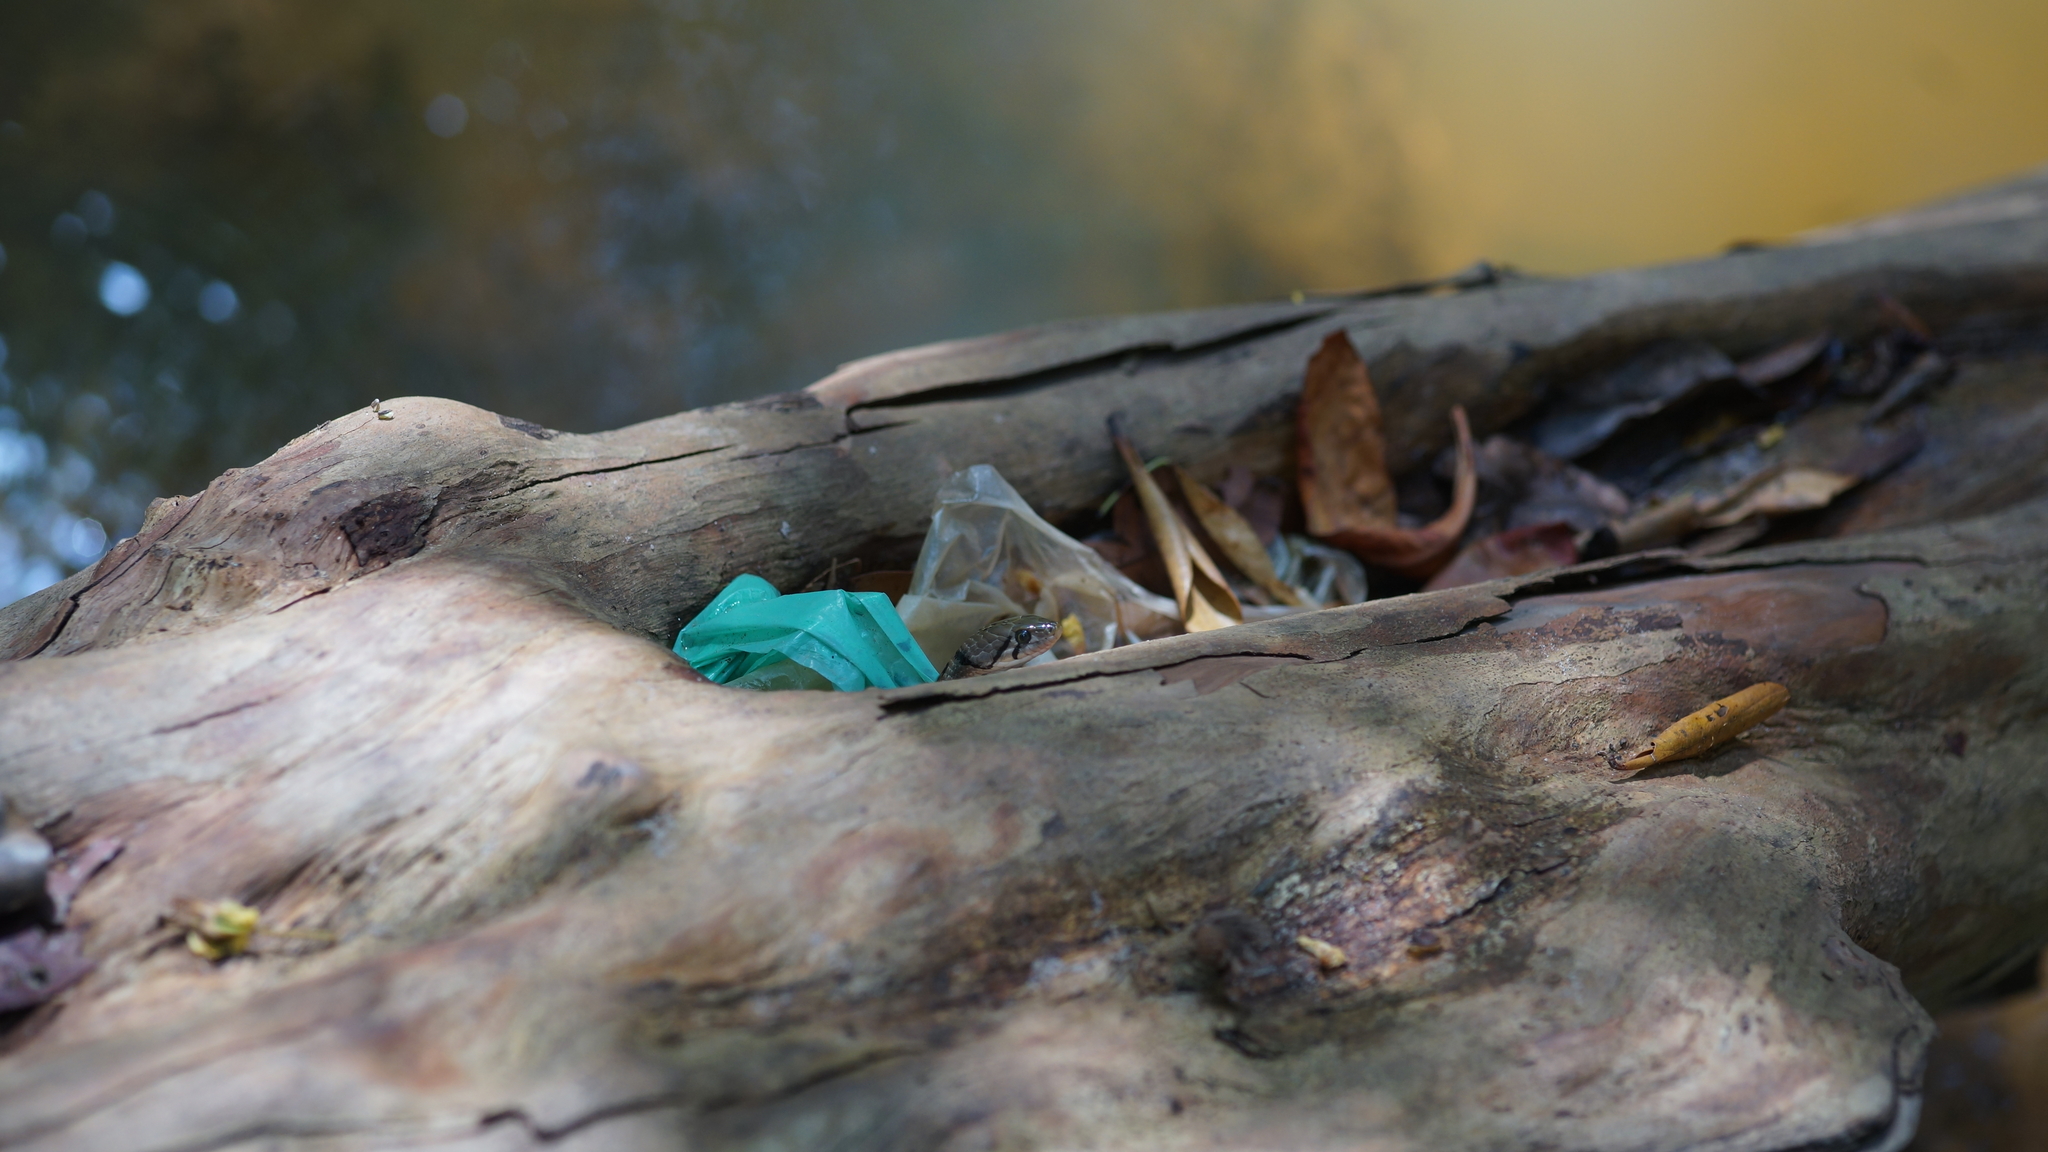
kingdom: Animalia
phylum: Chordata
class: Squamata
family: Colubridae
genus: Fowlea
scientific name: Fowlea flavipunctatus
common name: Yellow-spotted keelback
